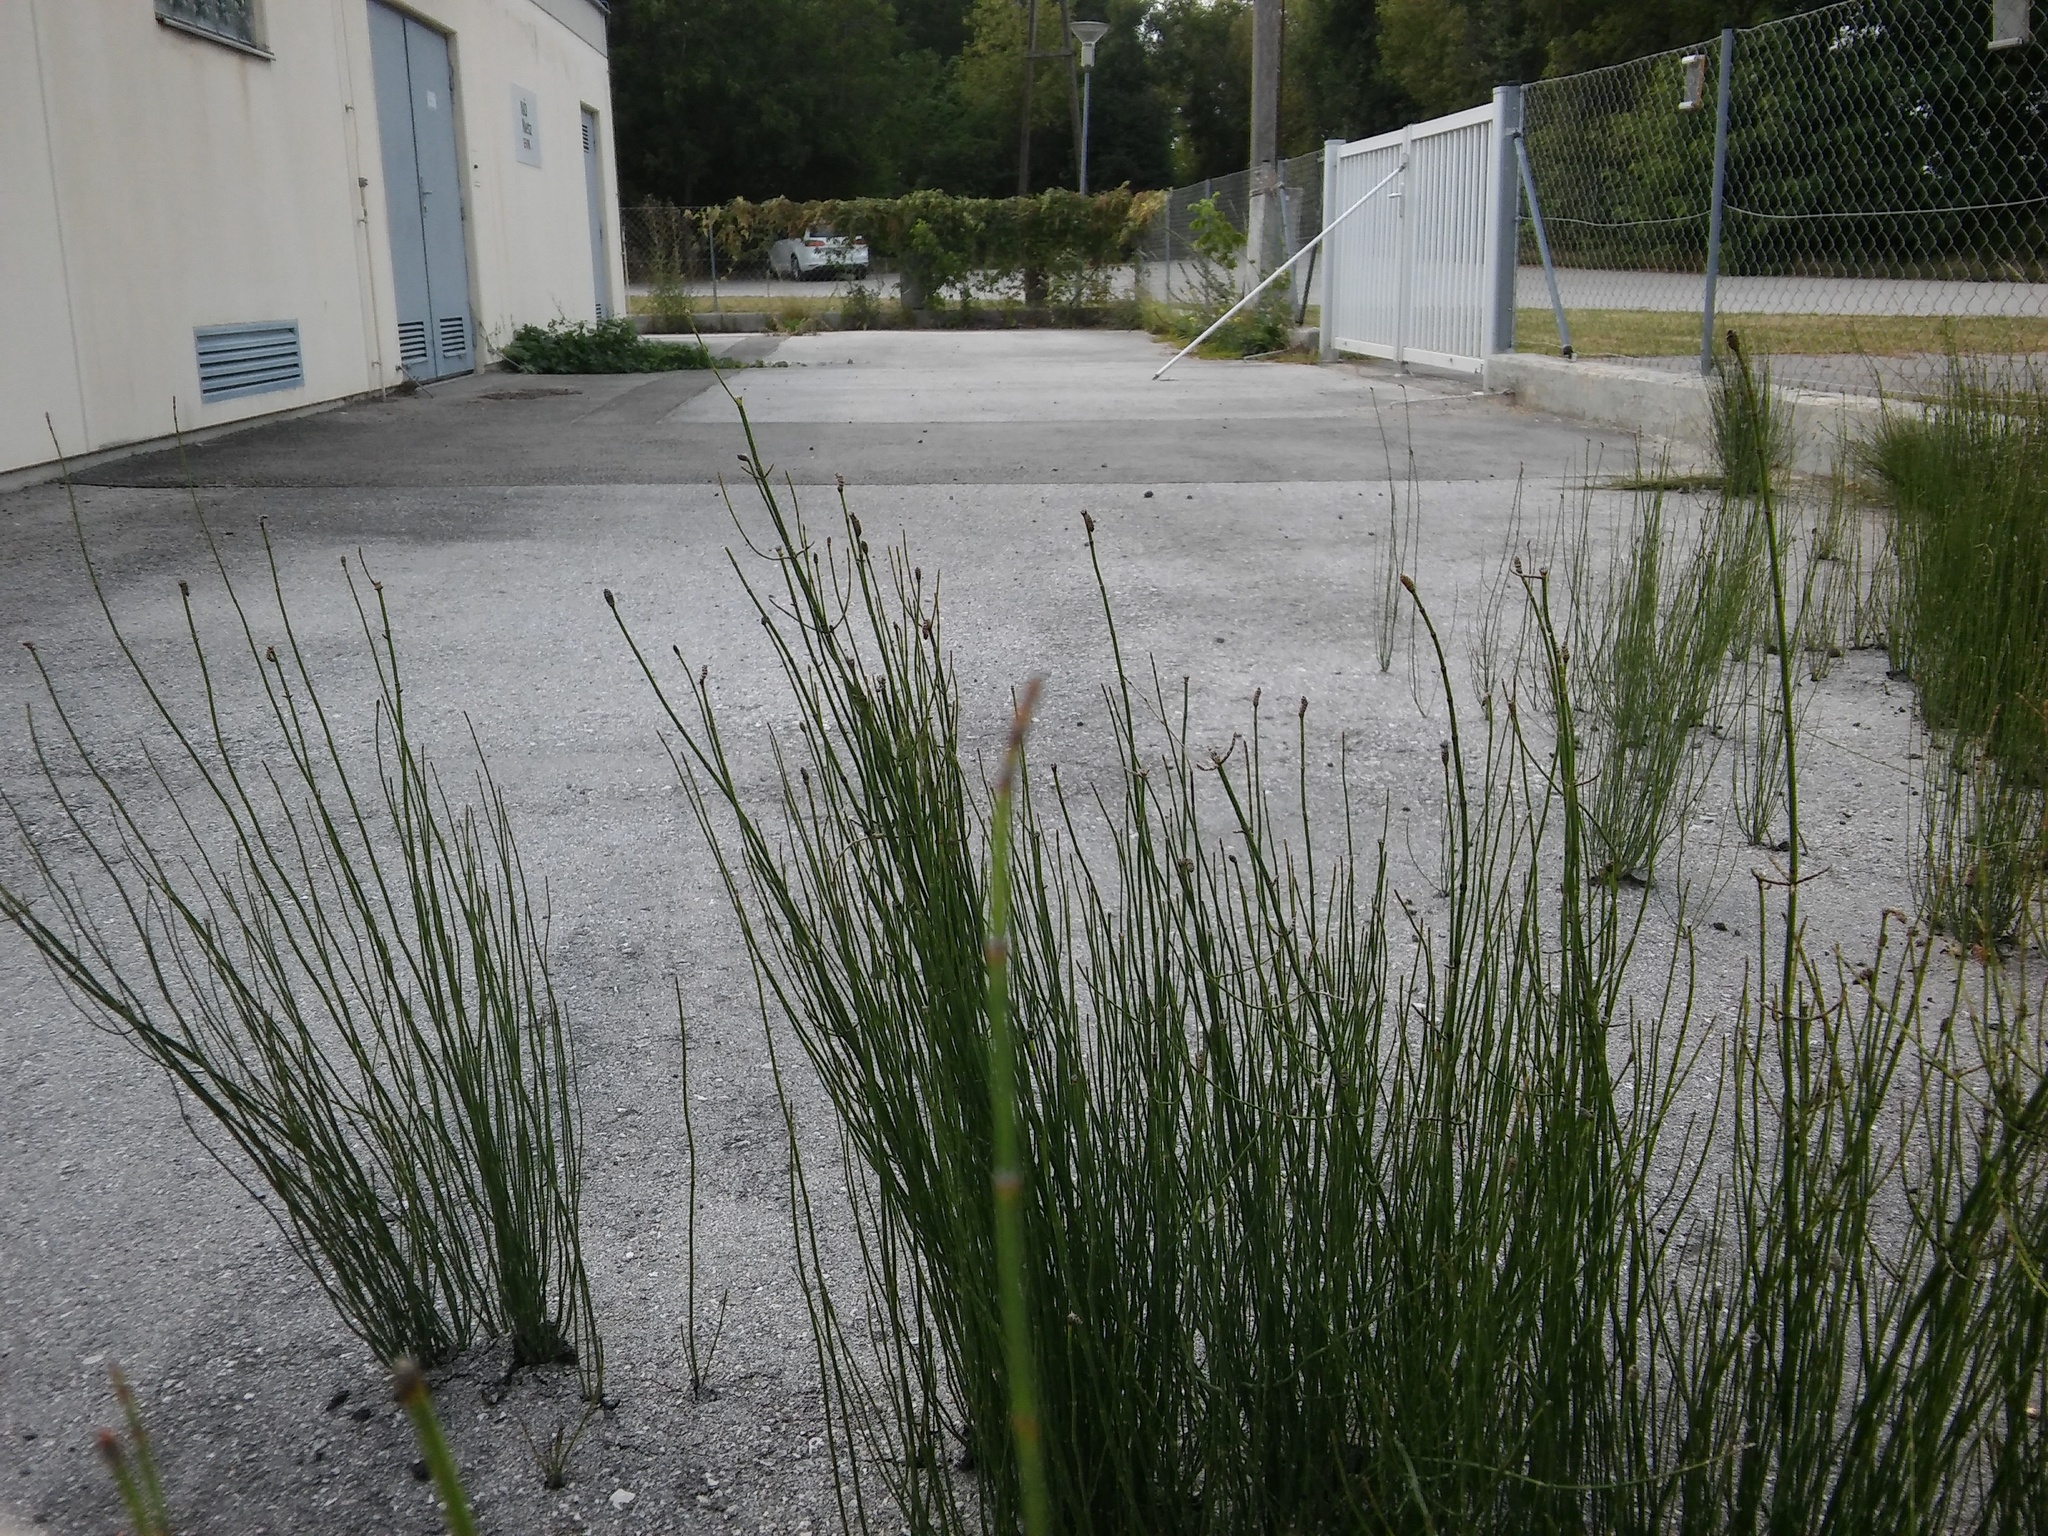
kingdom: Plantae
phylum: Tracheophyta
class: Polypodiopsida
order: Equisetales
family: Equisetaceae
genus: Equisetum
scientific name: Equisetum ramosissimum
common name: Branched horsetail
